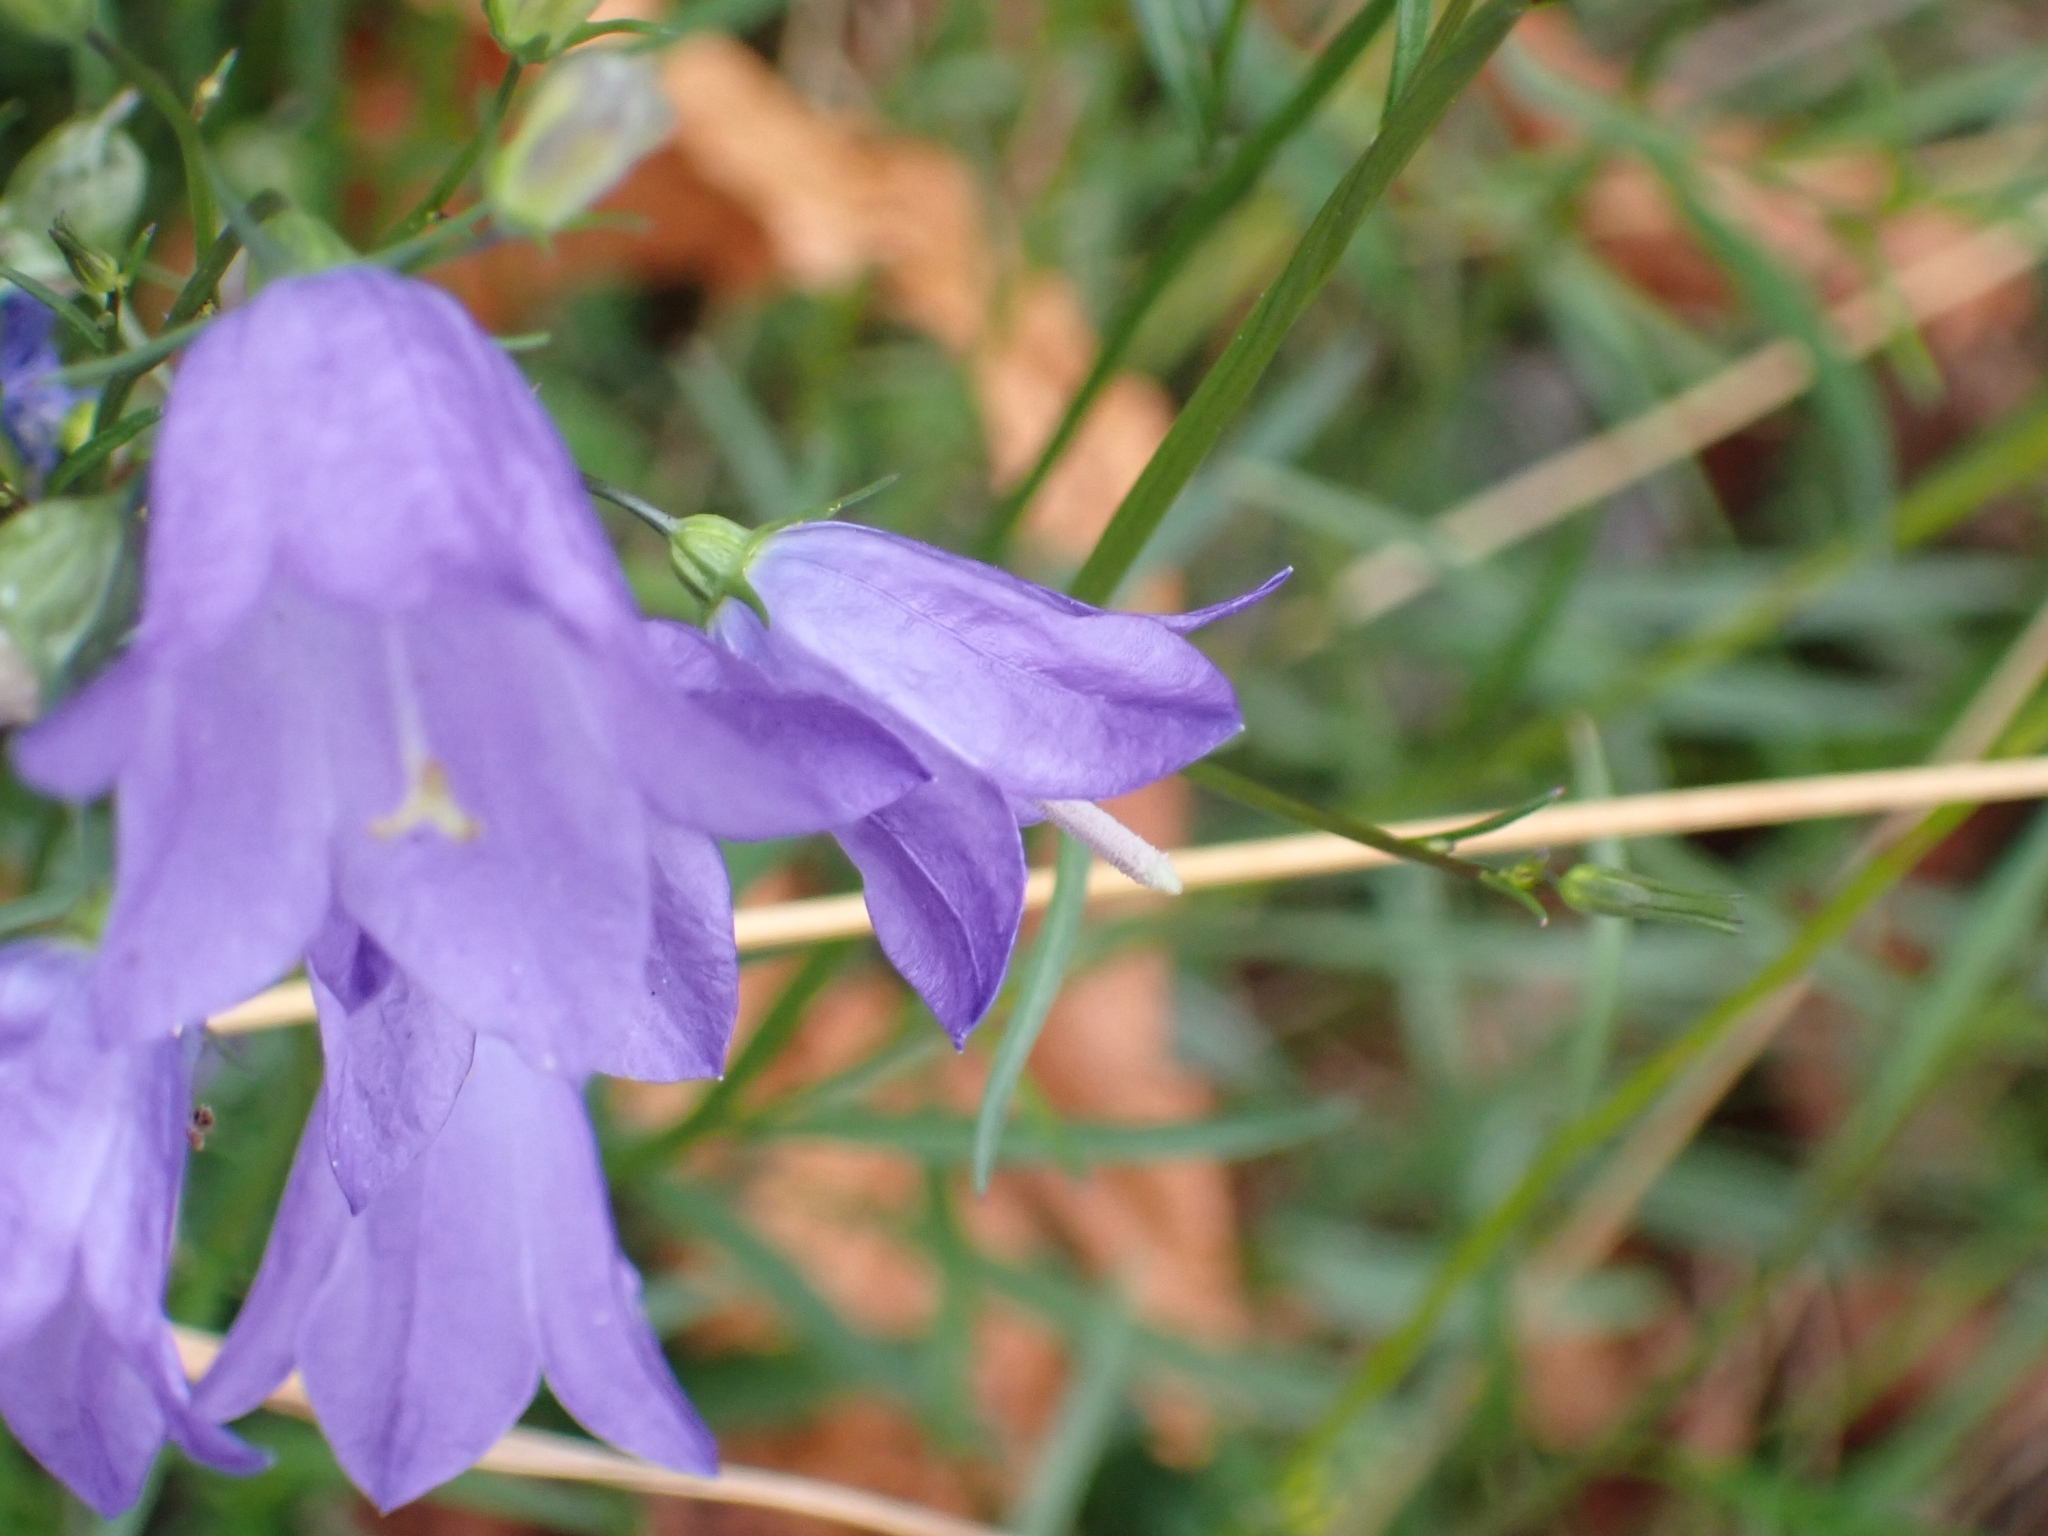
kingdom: Plantae
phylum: Tracheophyta
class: Magnoliopsida
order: Asterales
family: Campanulaceae
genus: Campanula
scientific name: Campanula rotundifolia
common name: Harebell
